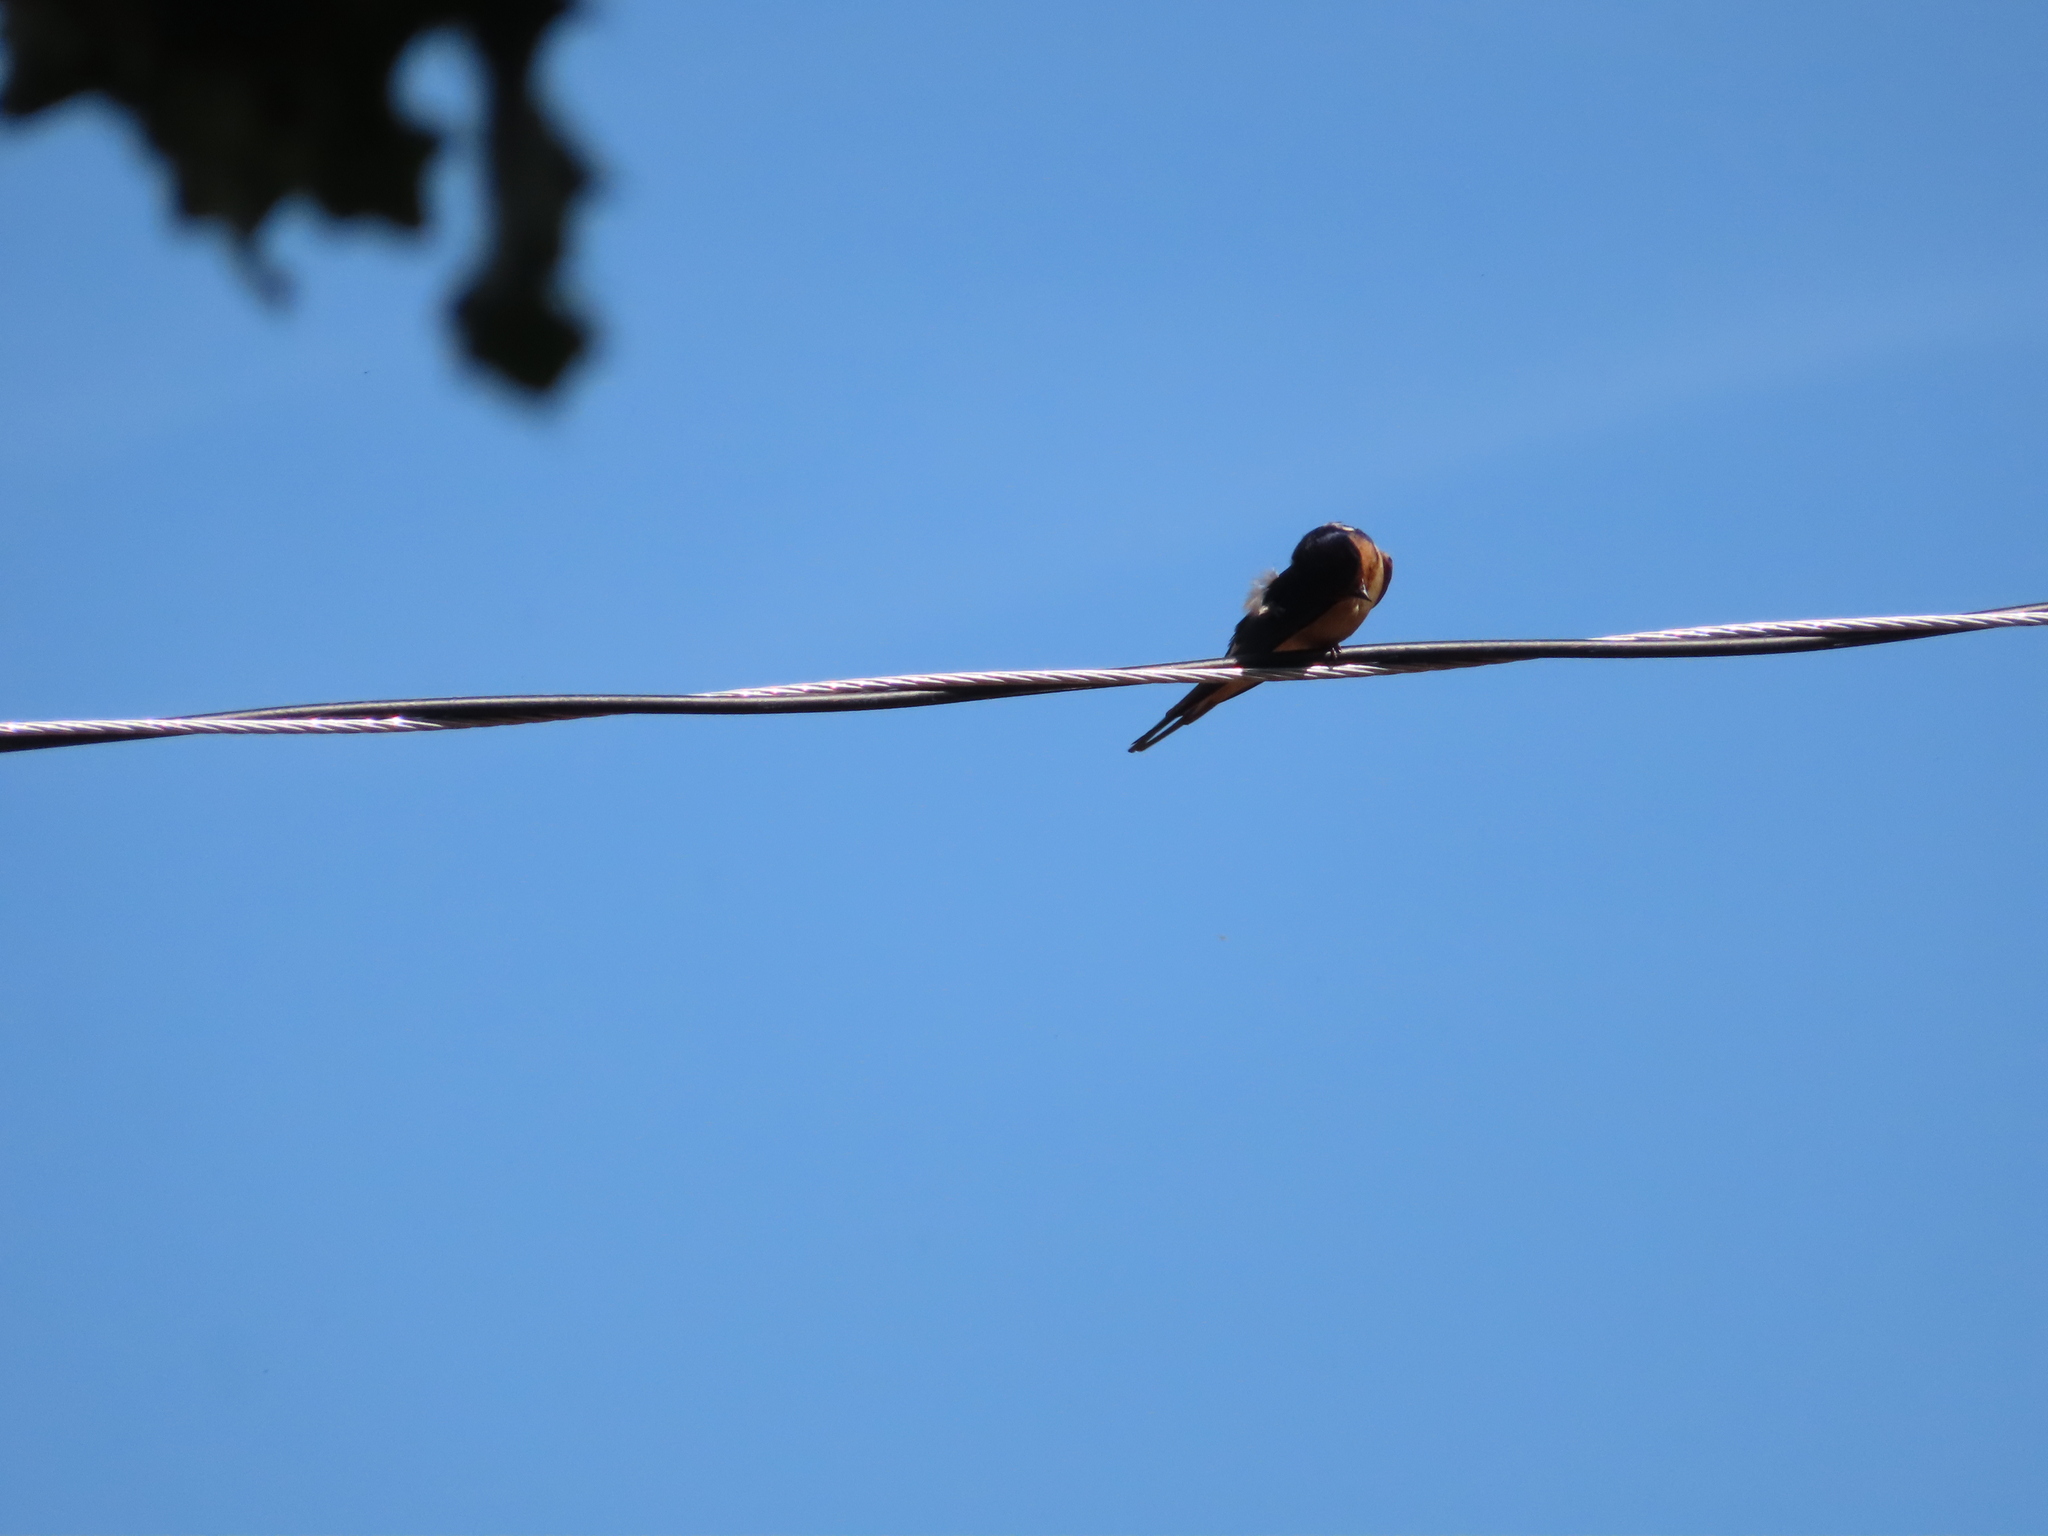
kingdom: Animalia
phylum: Chordata
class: Aves
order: Passeriformes
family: Hirundinidae
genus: Hirundo
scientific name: Hirundo rustica
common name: Barn swallow
